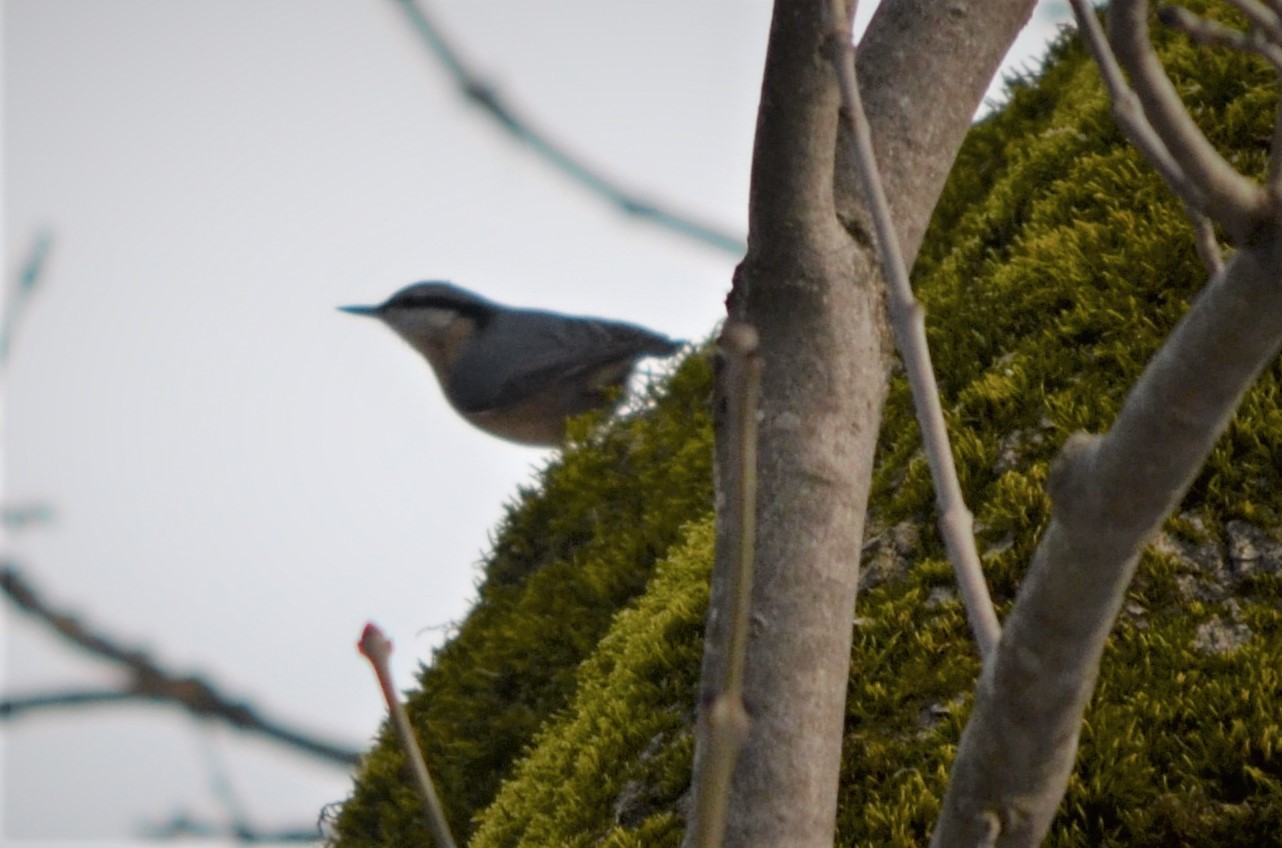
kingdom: Animalia
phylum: Chordata
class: Aves
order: Passeriformes
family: Sittidae
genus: Sitta
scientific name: Sitta europaea
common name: Eurasian nuthatch
